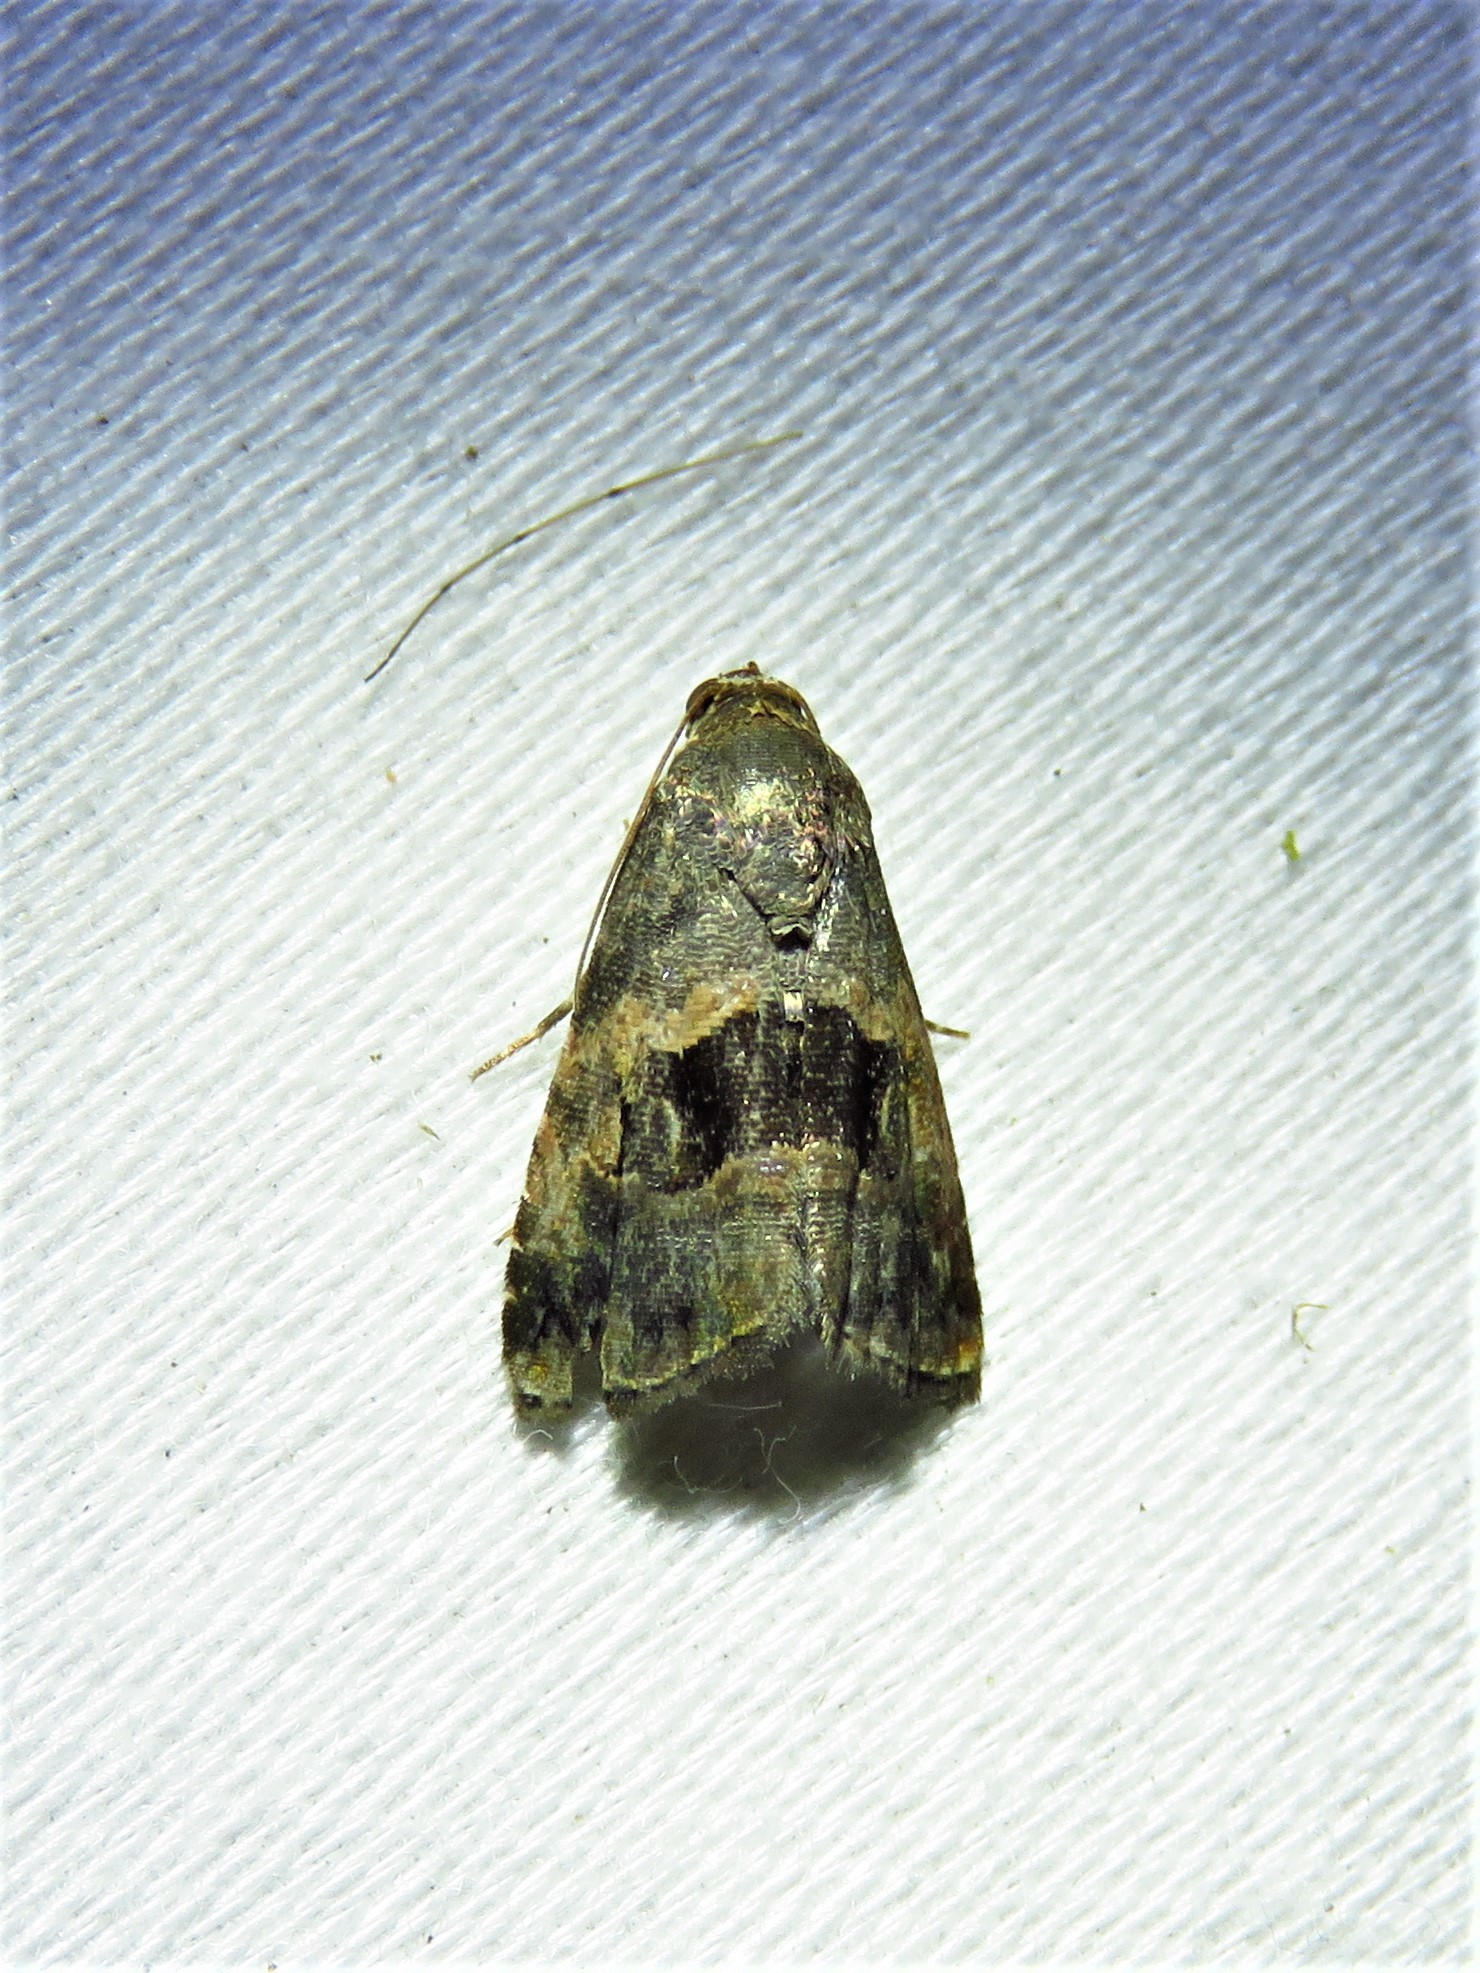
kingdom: Animalia
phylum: Arthropoda
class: Insecta
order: Lepidoptera
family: Noctuidae
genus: Tripudia
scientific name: Tripudia quadrifera
